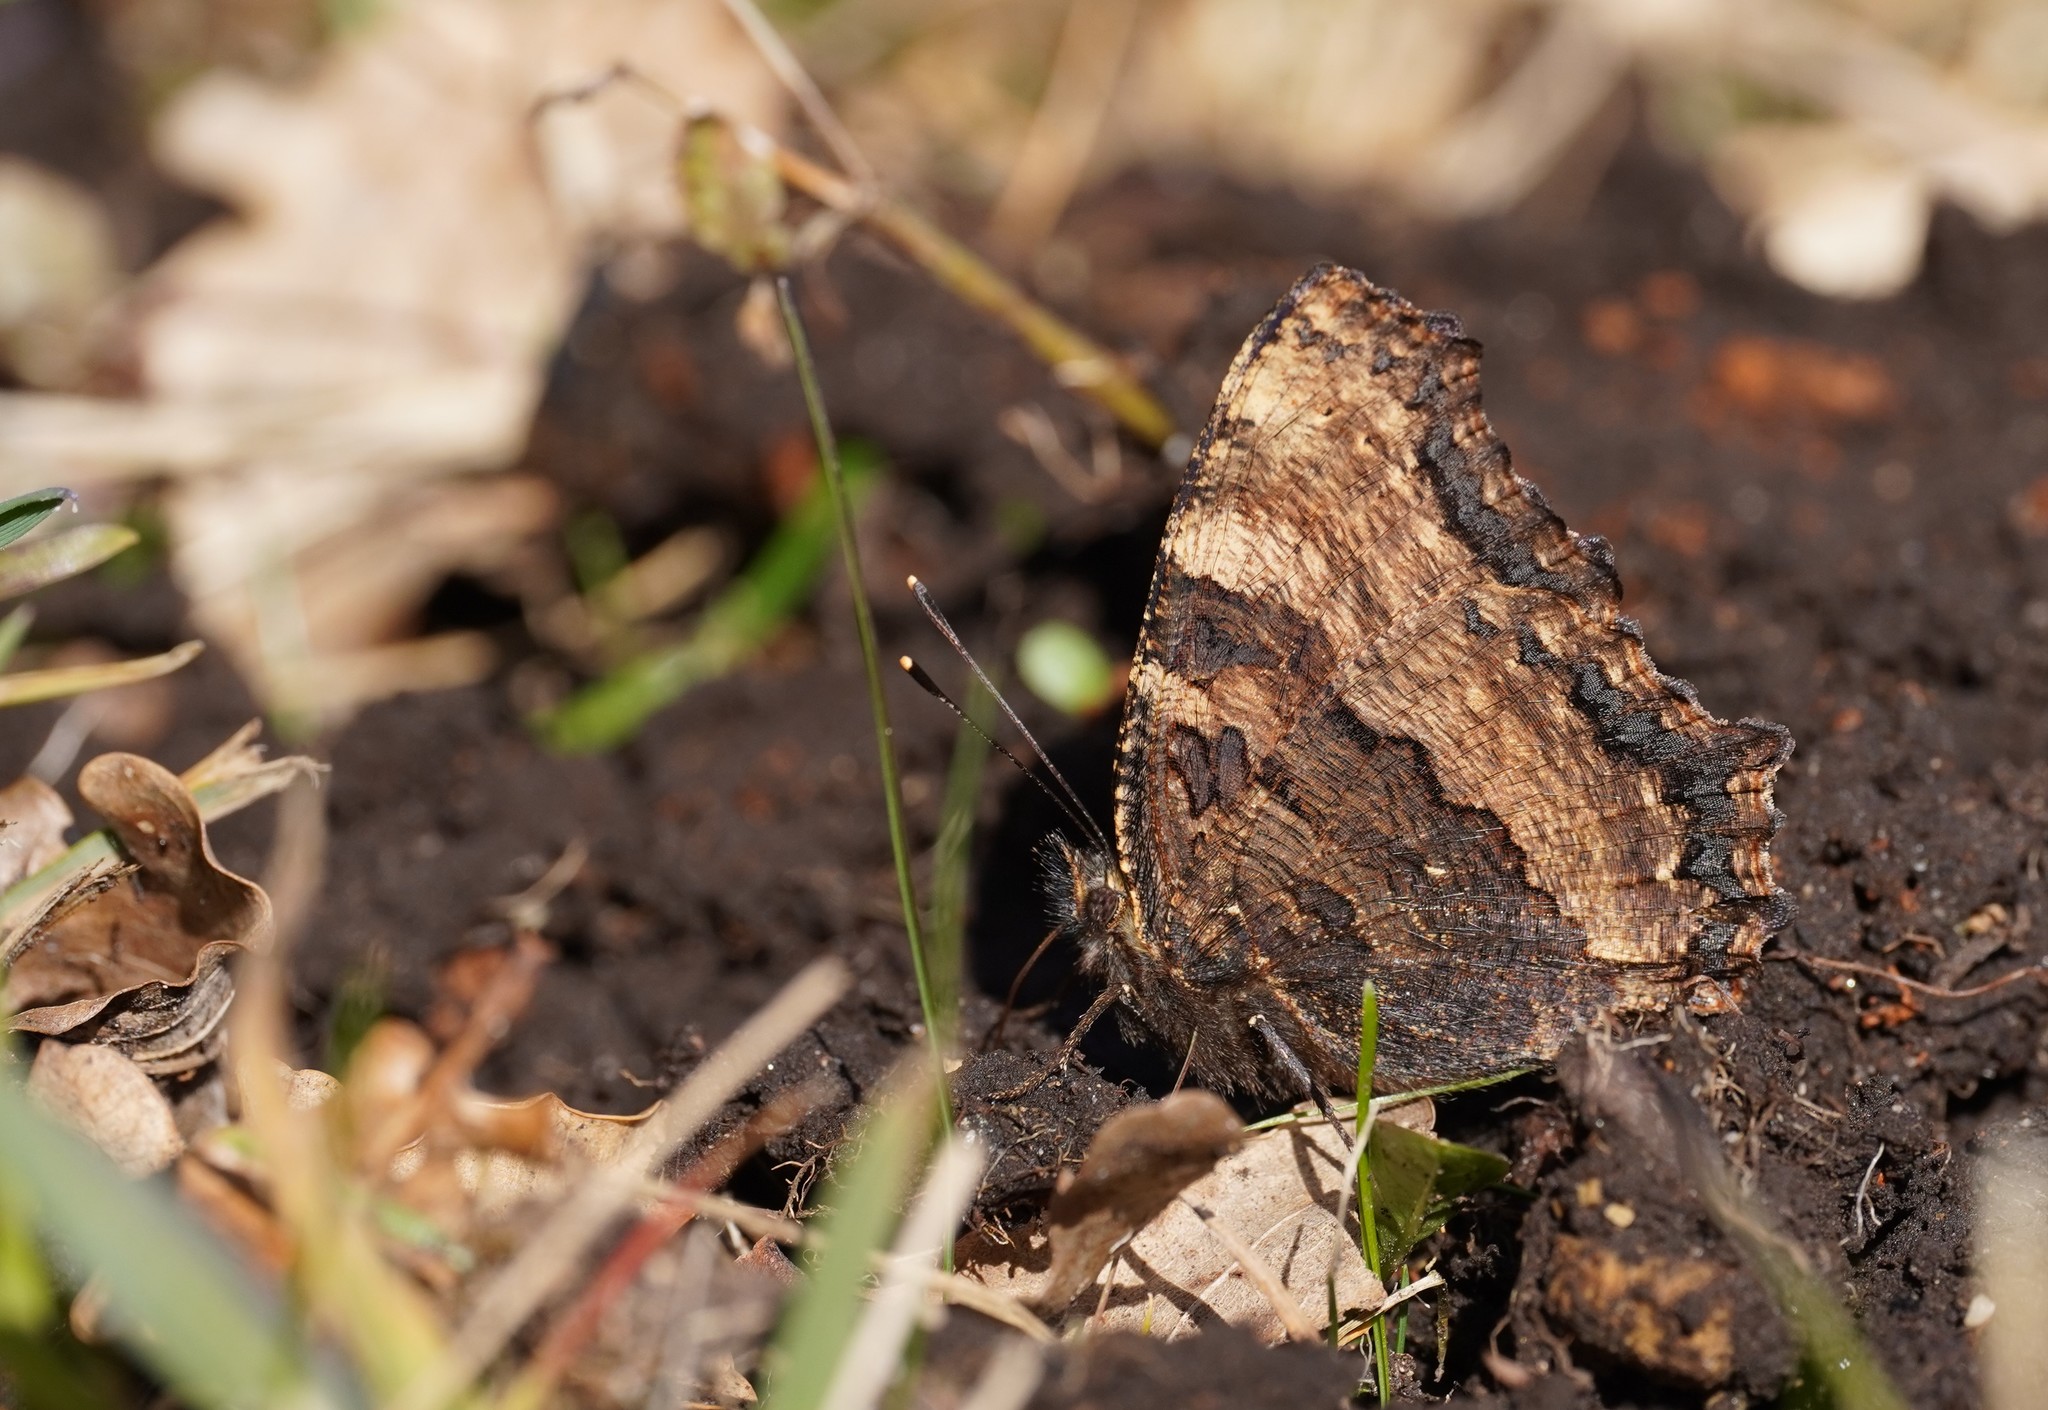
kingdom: Animalia
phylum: Arthropoda
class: Insecta
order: Lepidoptera
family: Nymphalidae
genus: Nymphalis
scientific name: Nymphalis polychloros
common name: Large tortoiseshell
